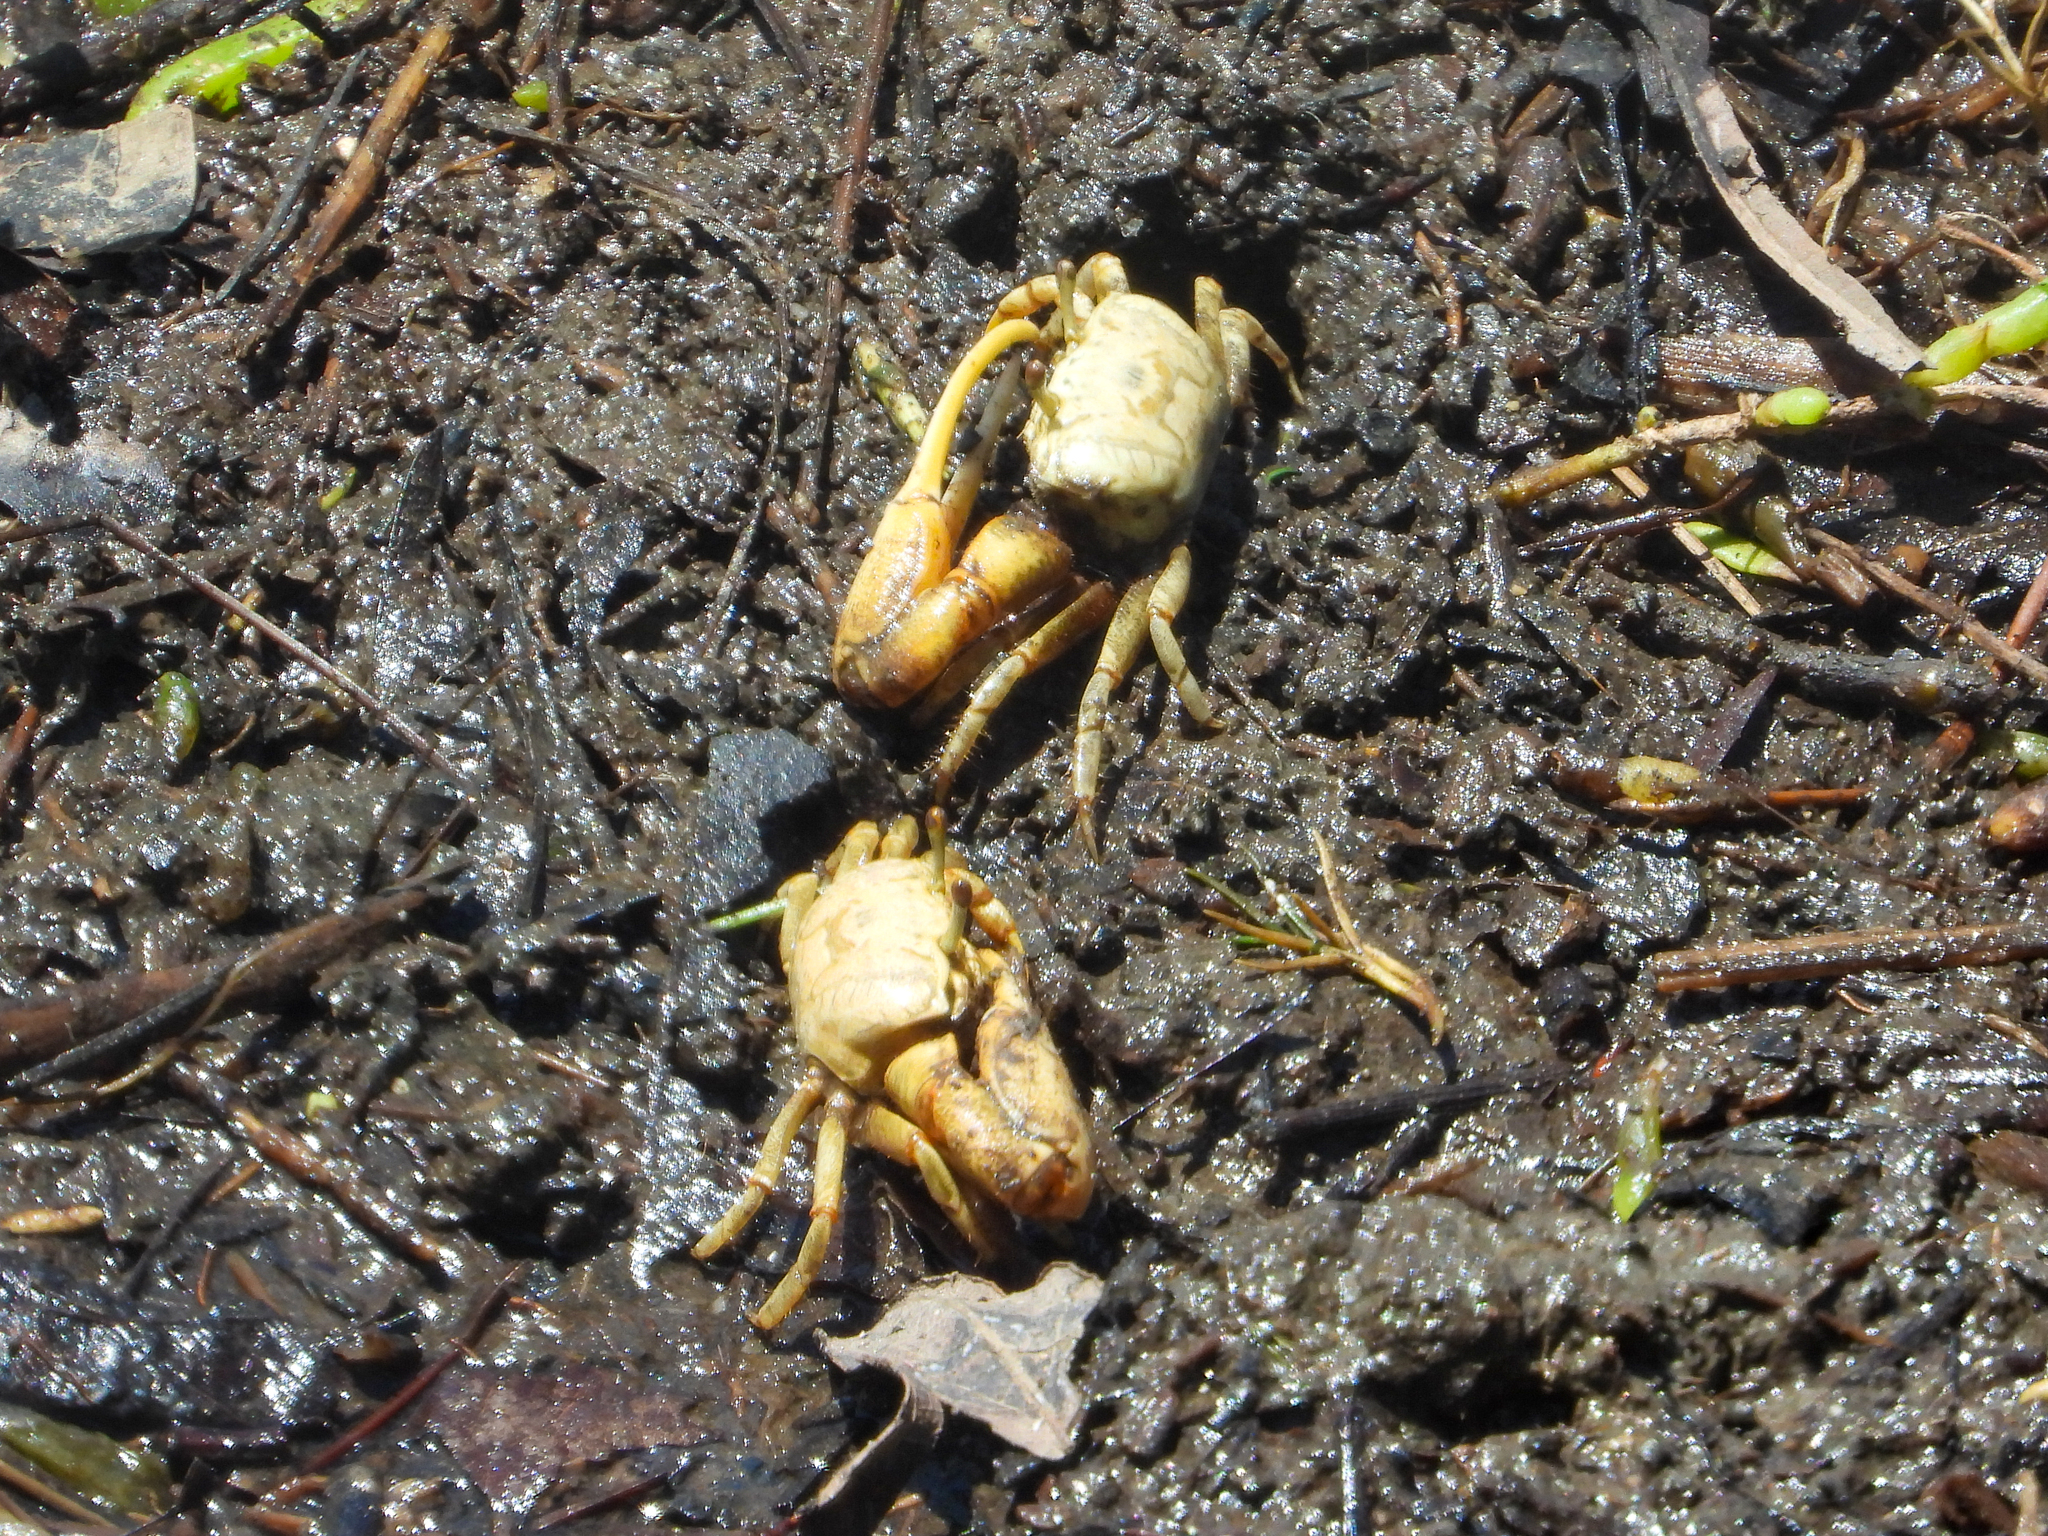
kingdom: Animalia
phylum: Arthropoda
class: Malacostraca
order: Decapoda
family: Ocypodidae
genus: Leptuca
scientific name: Leptuca crenulata
